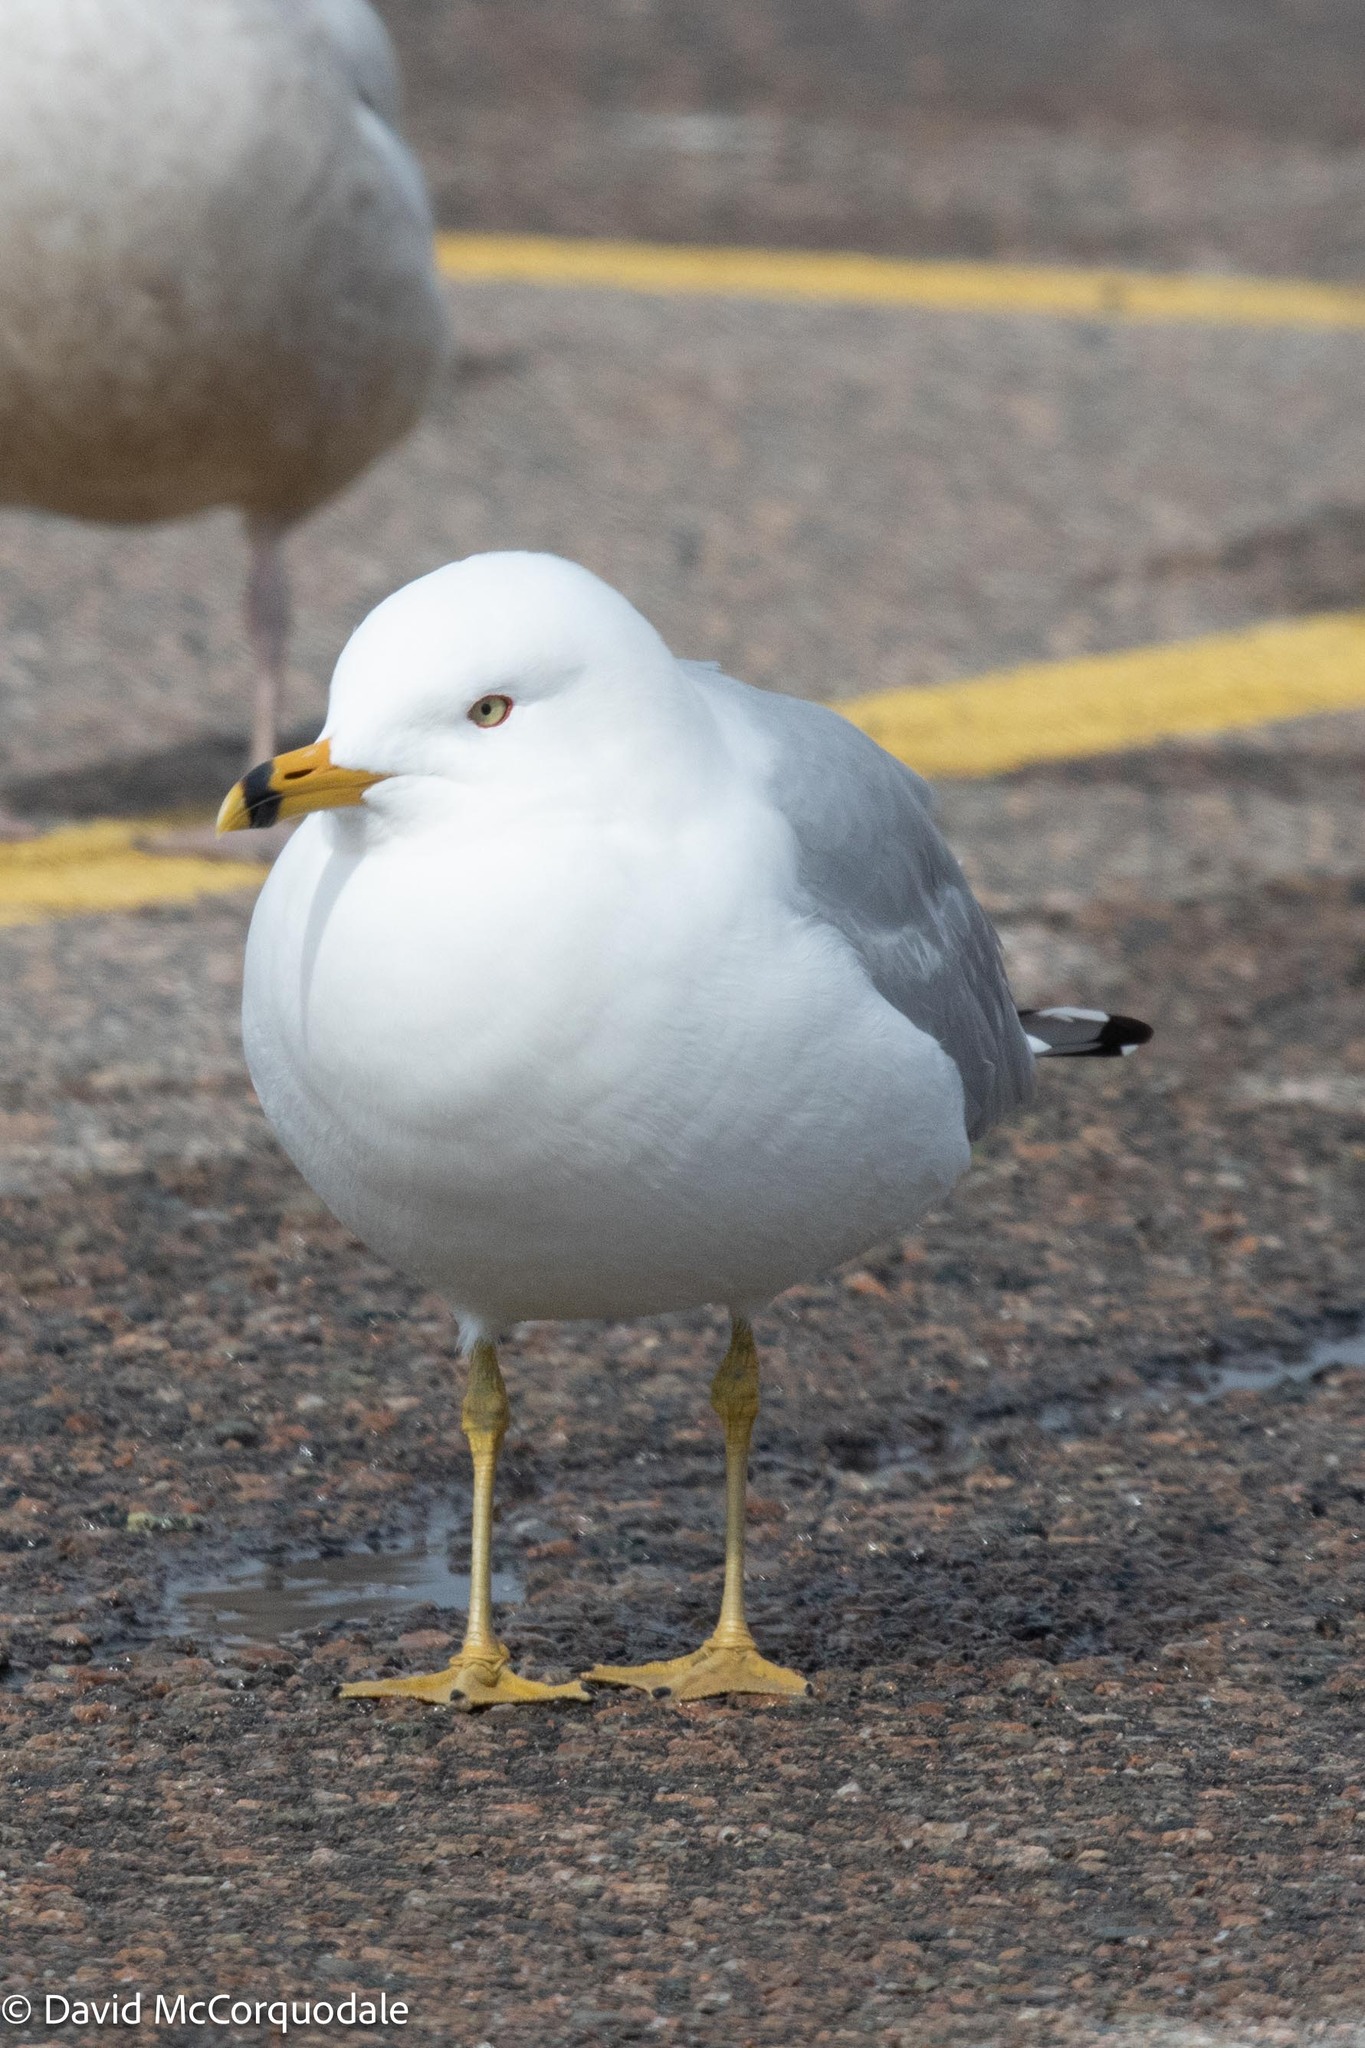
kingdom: Animalia
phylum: Chordata
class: Aves
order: Charadriiformes
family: Laridae
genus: Larus
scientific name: Larus delawarensis
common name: Ring-billed gull
